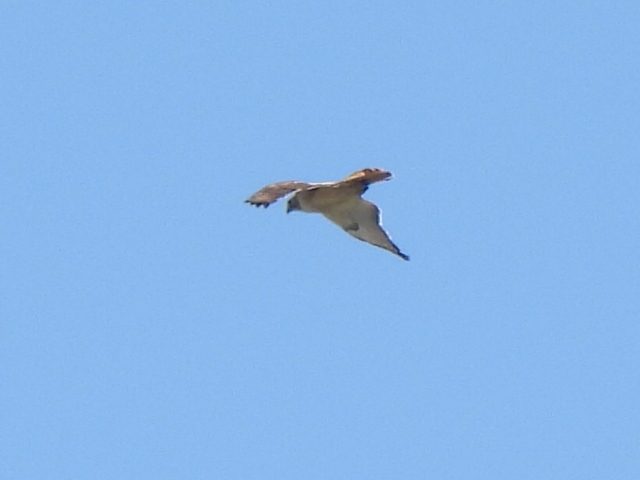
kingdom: Animalia
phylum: Chordata
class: Aves
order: Accipitriformes
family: Accipitridae
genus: Buteo
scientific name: Buteo jamaicensis
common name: Red-tailed hawk
